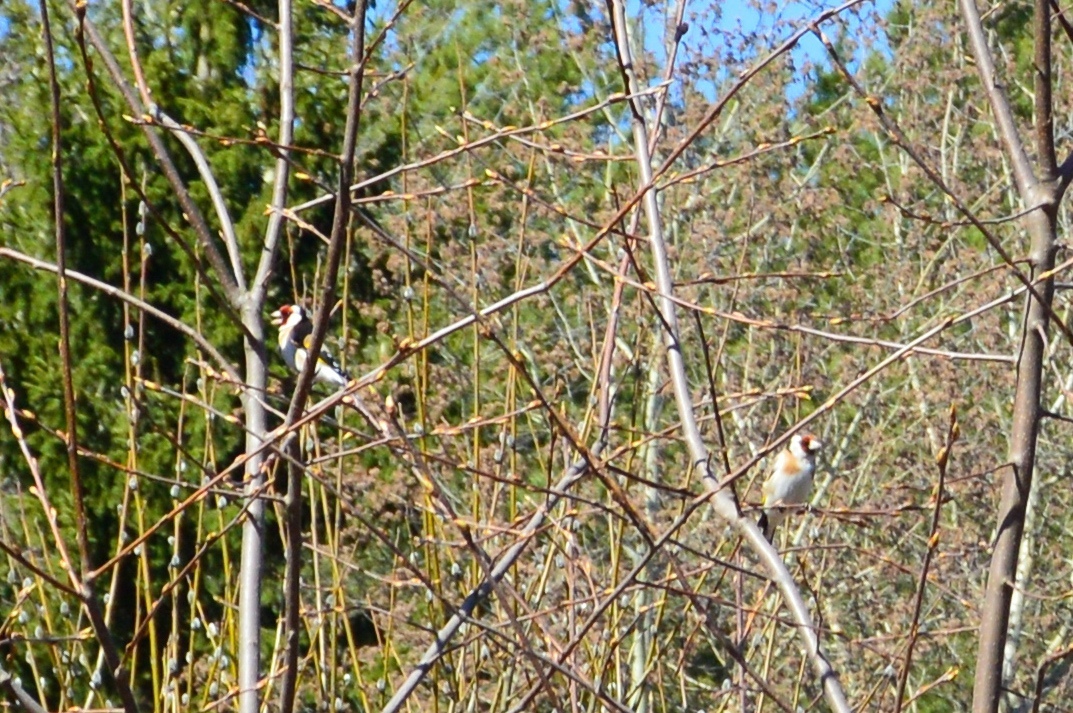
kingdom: Animalia
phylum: Chordata
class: Aves
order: Passeriformes
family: Fringillidae
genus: Carduelis
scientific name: Carduelis carduelis
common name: European goldfinch
